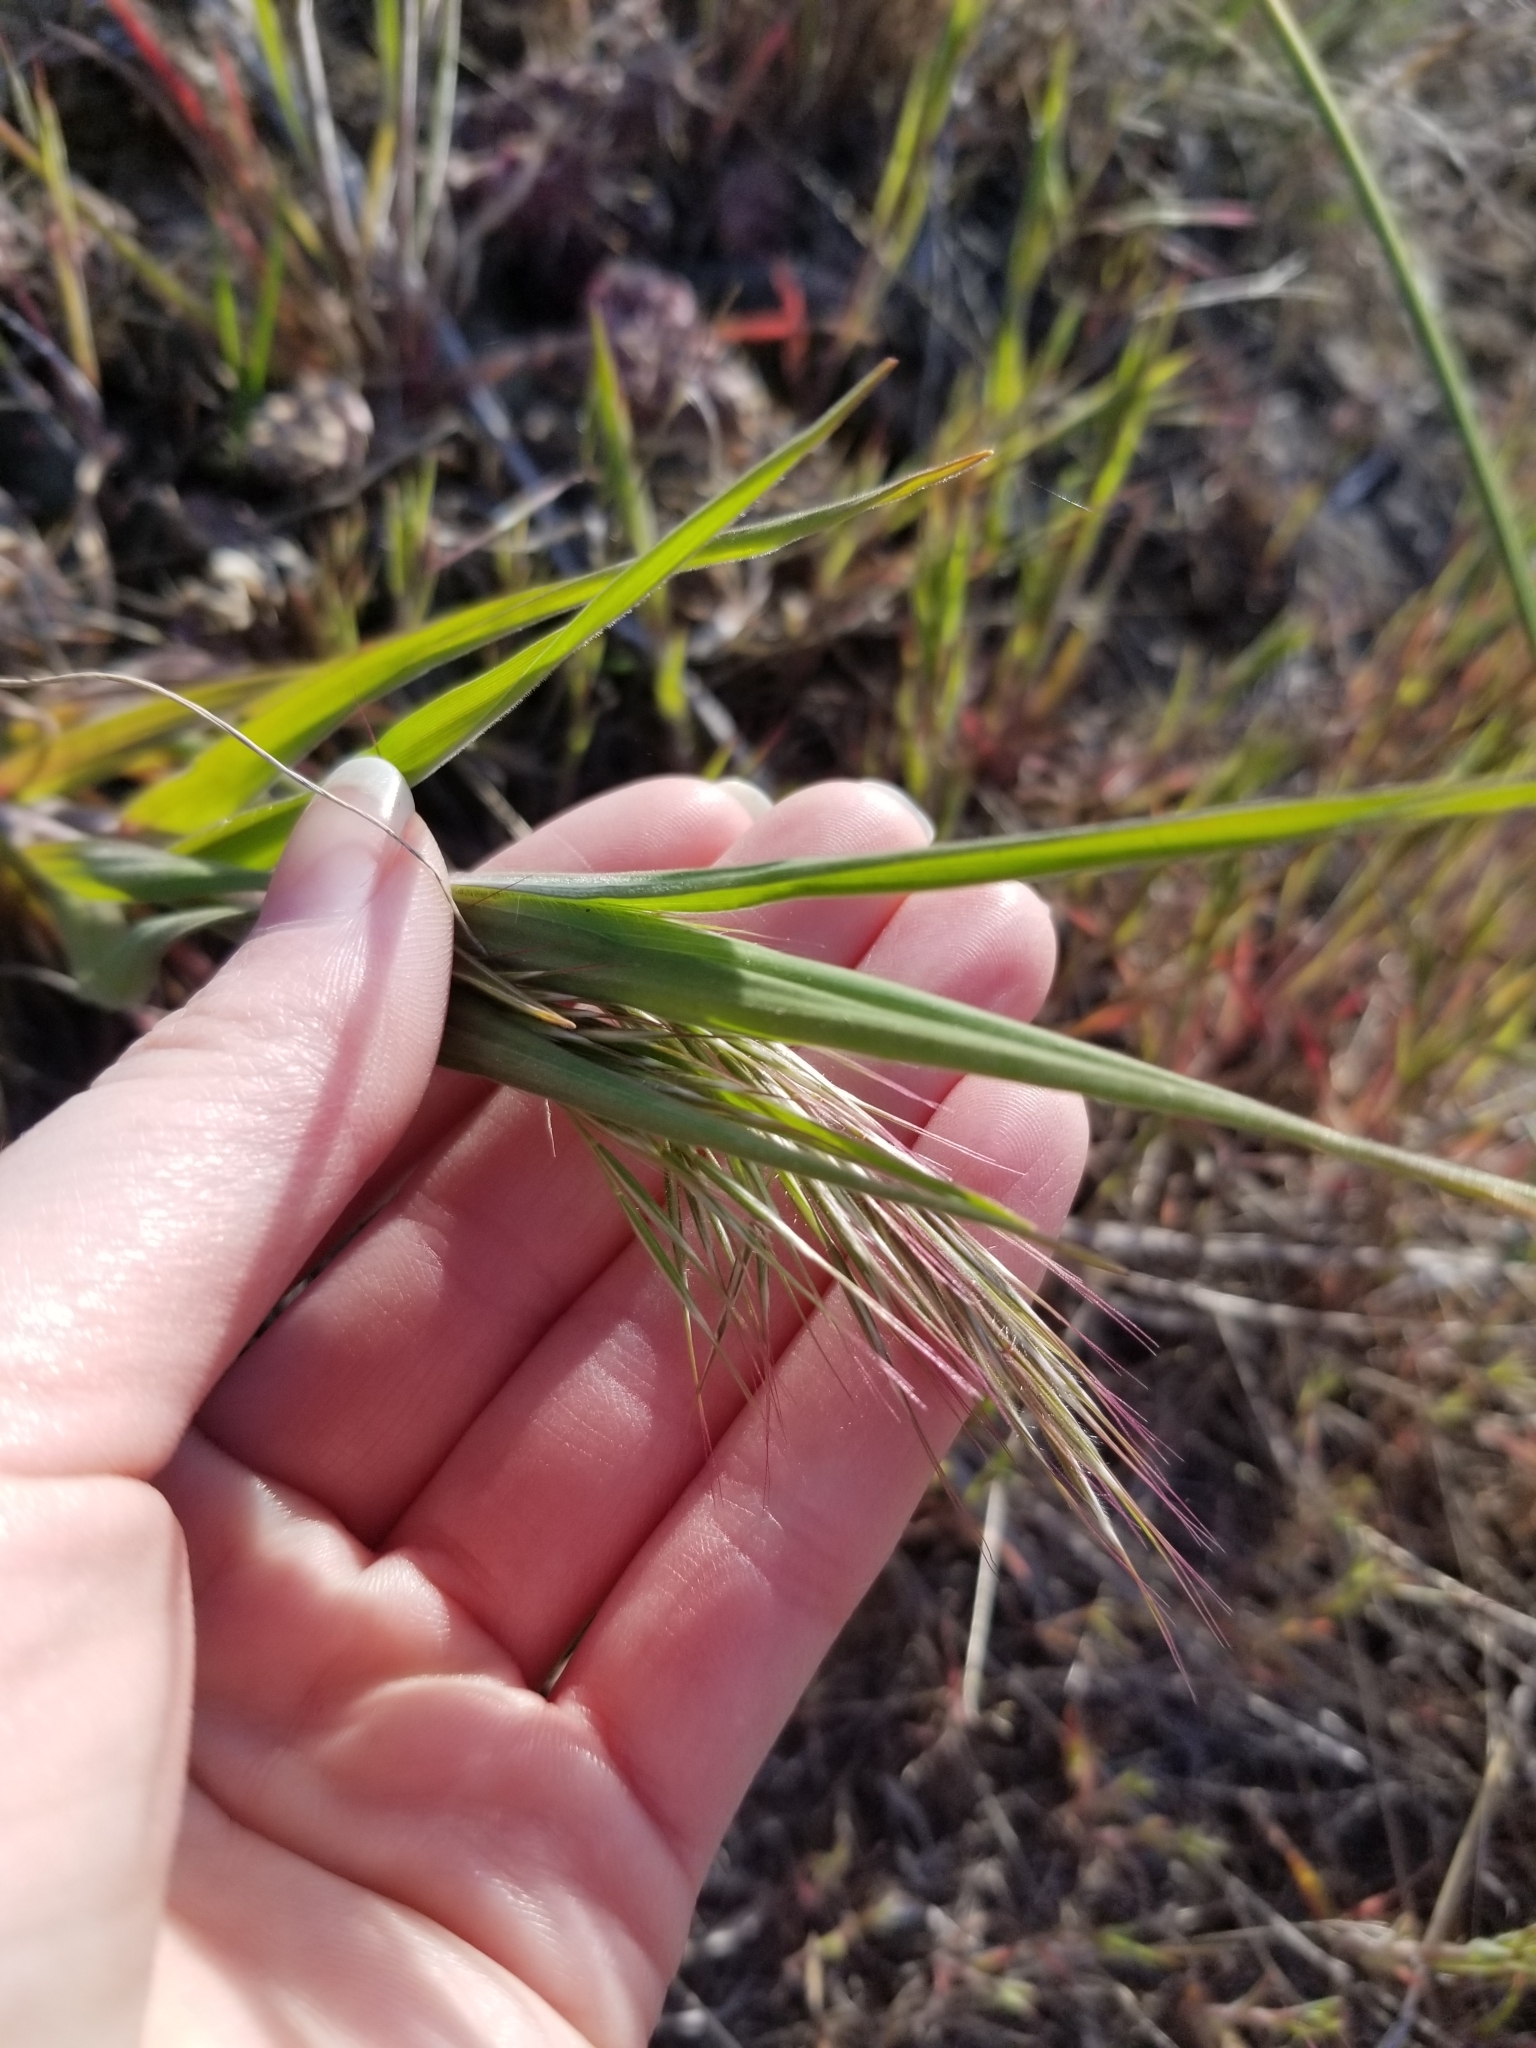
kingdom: Plantae
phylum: Tracheophyta
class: Liliopsida
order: Poales
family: Poaceae
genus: Bromus
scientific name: Bromus tectorum
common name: Cheatgrass
